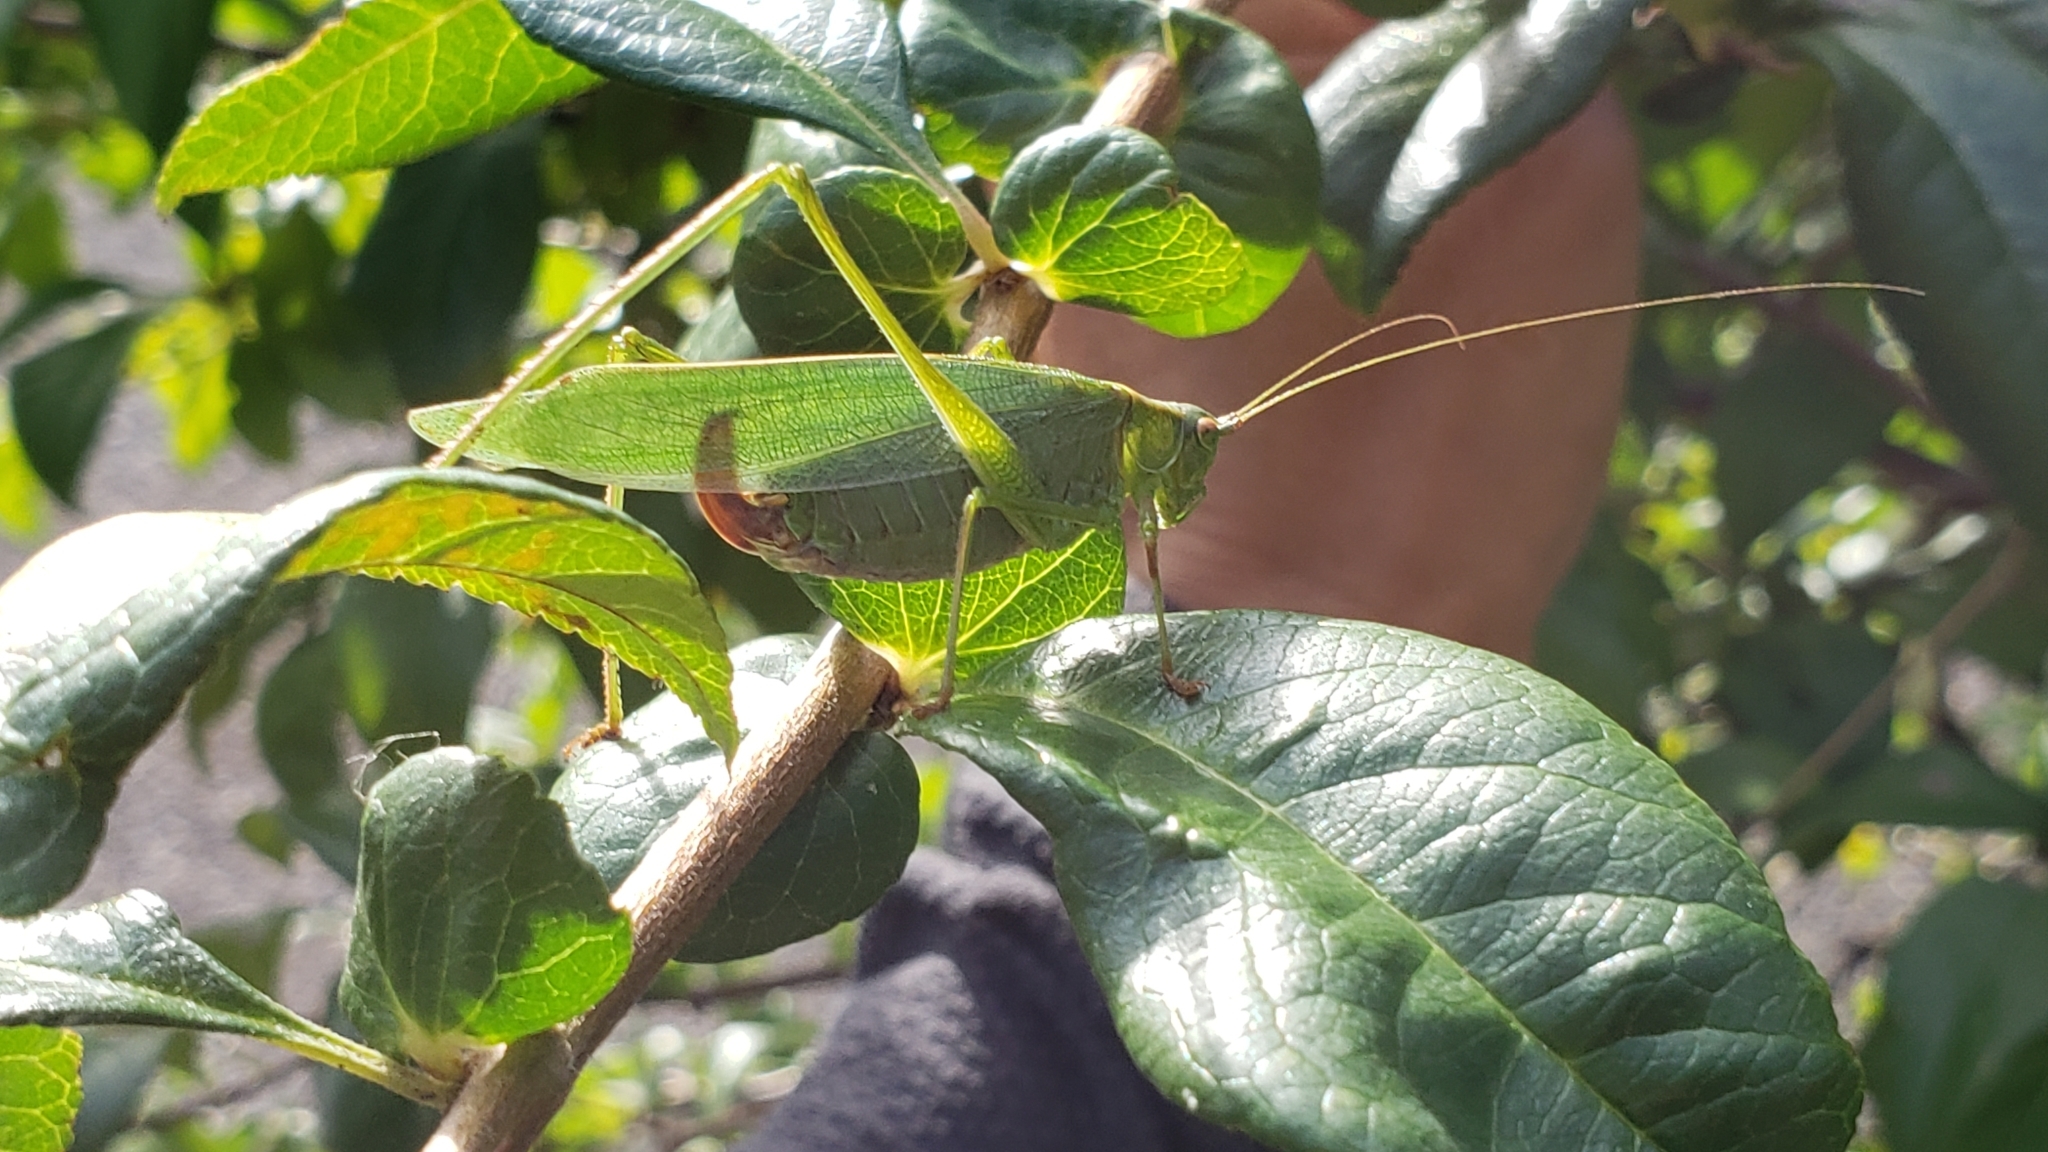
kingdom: Animalia
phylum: Arthropoda
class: Insecta
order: Orthoptera
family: Tettigoniidae
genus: Scudderia
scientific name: Scudderia furcata
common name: Fork-tailed bush katydid
